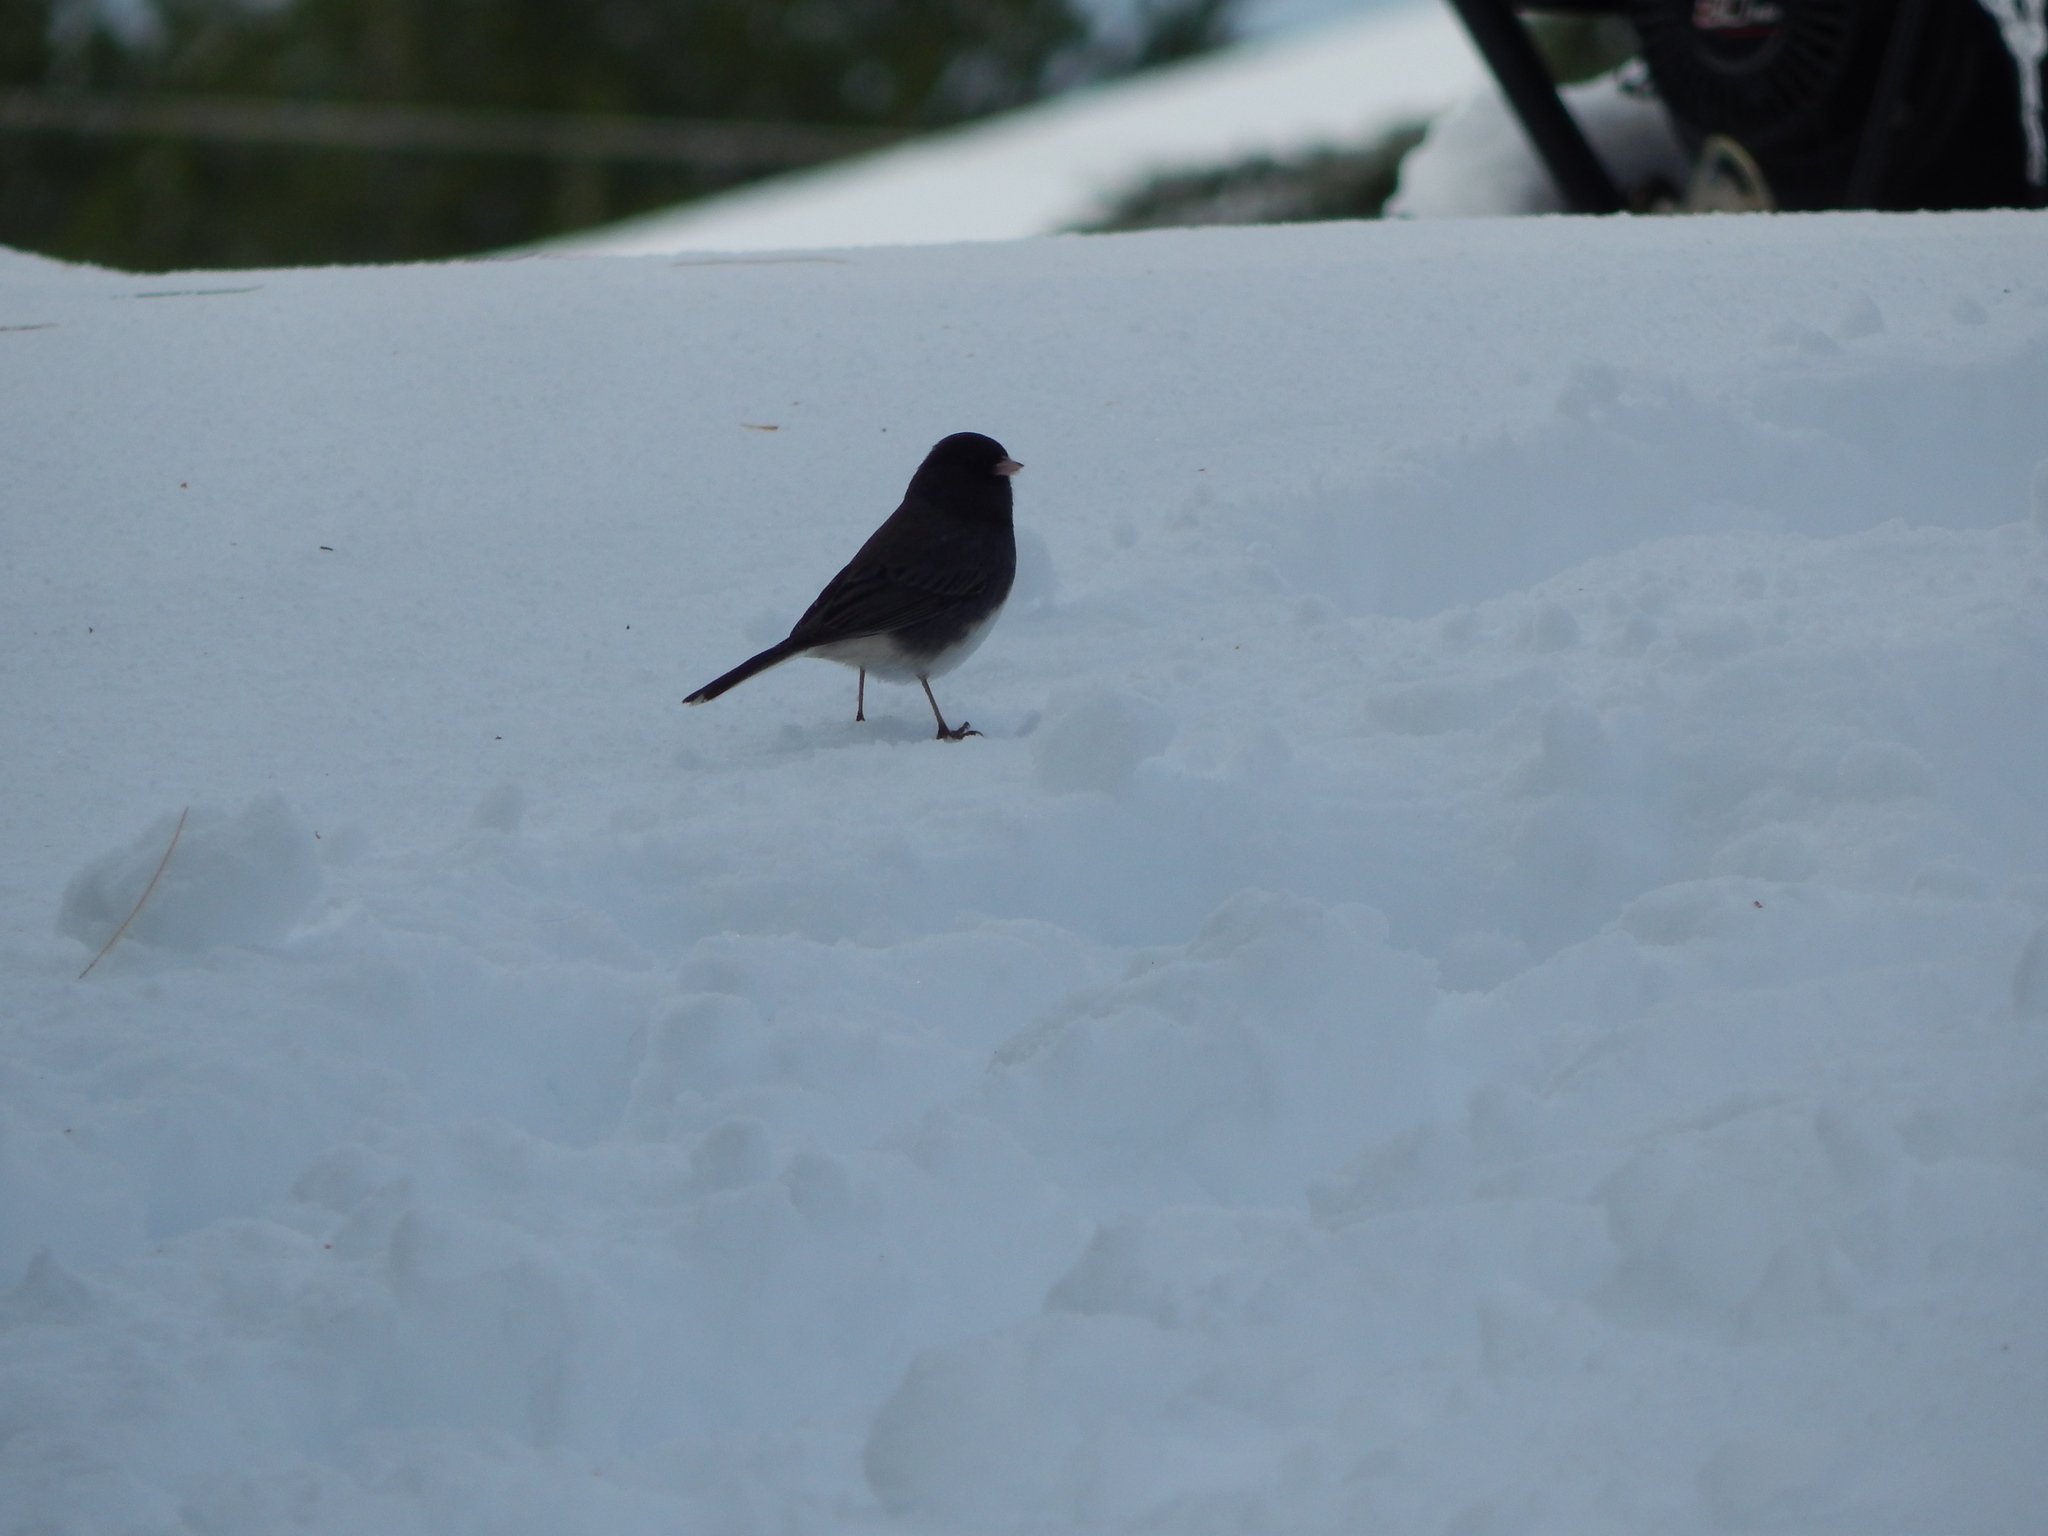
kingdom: Animalia
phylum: Chordata
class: Aves
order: Passeriformes
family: Passerellidae
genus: Junco
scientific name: Junco hyemalis
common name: Dark-eyed junco
